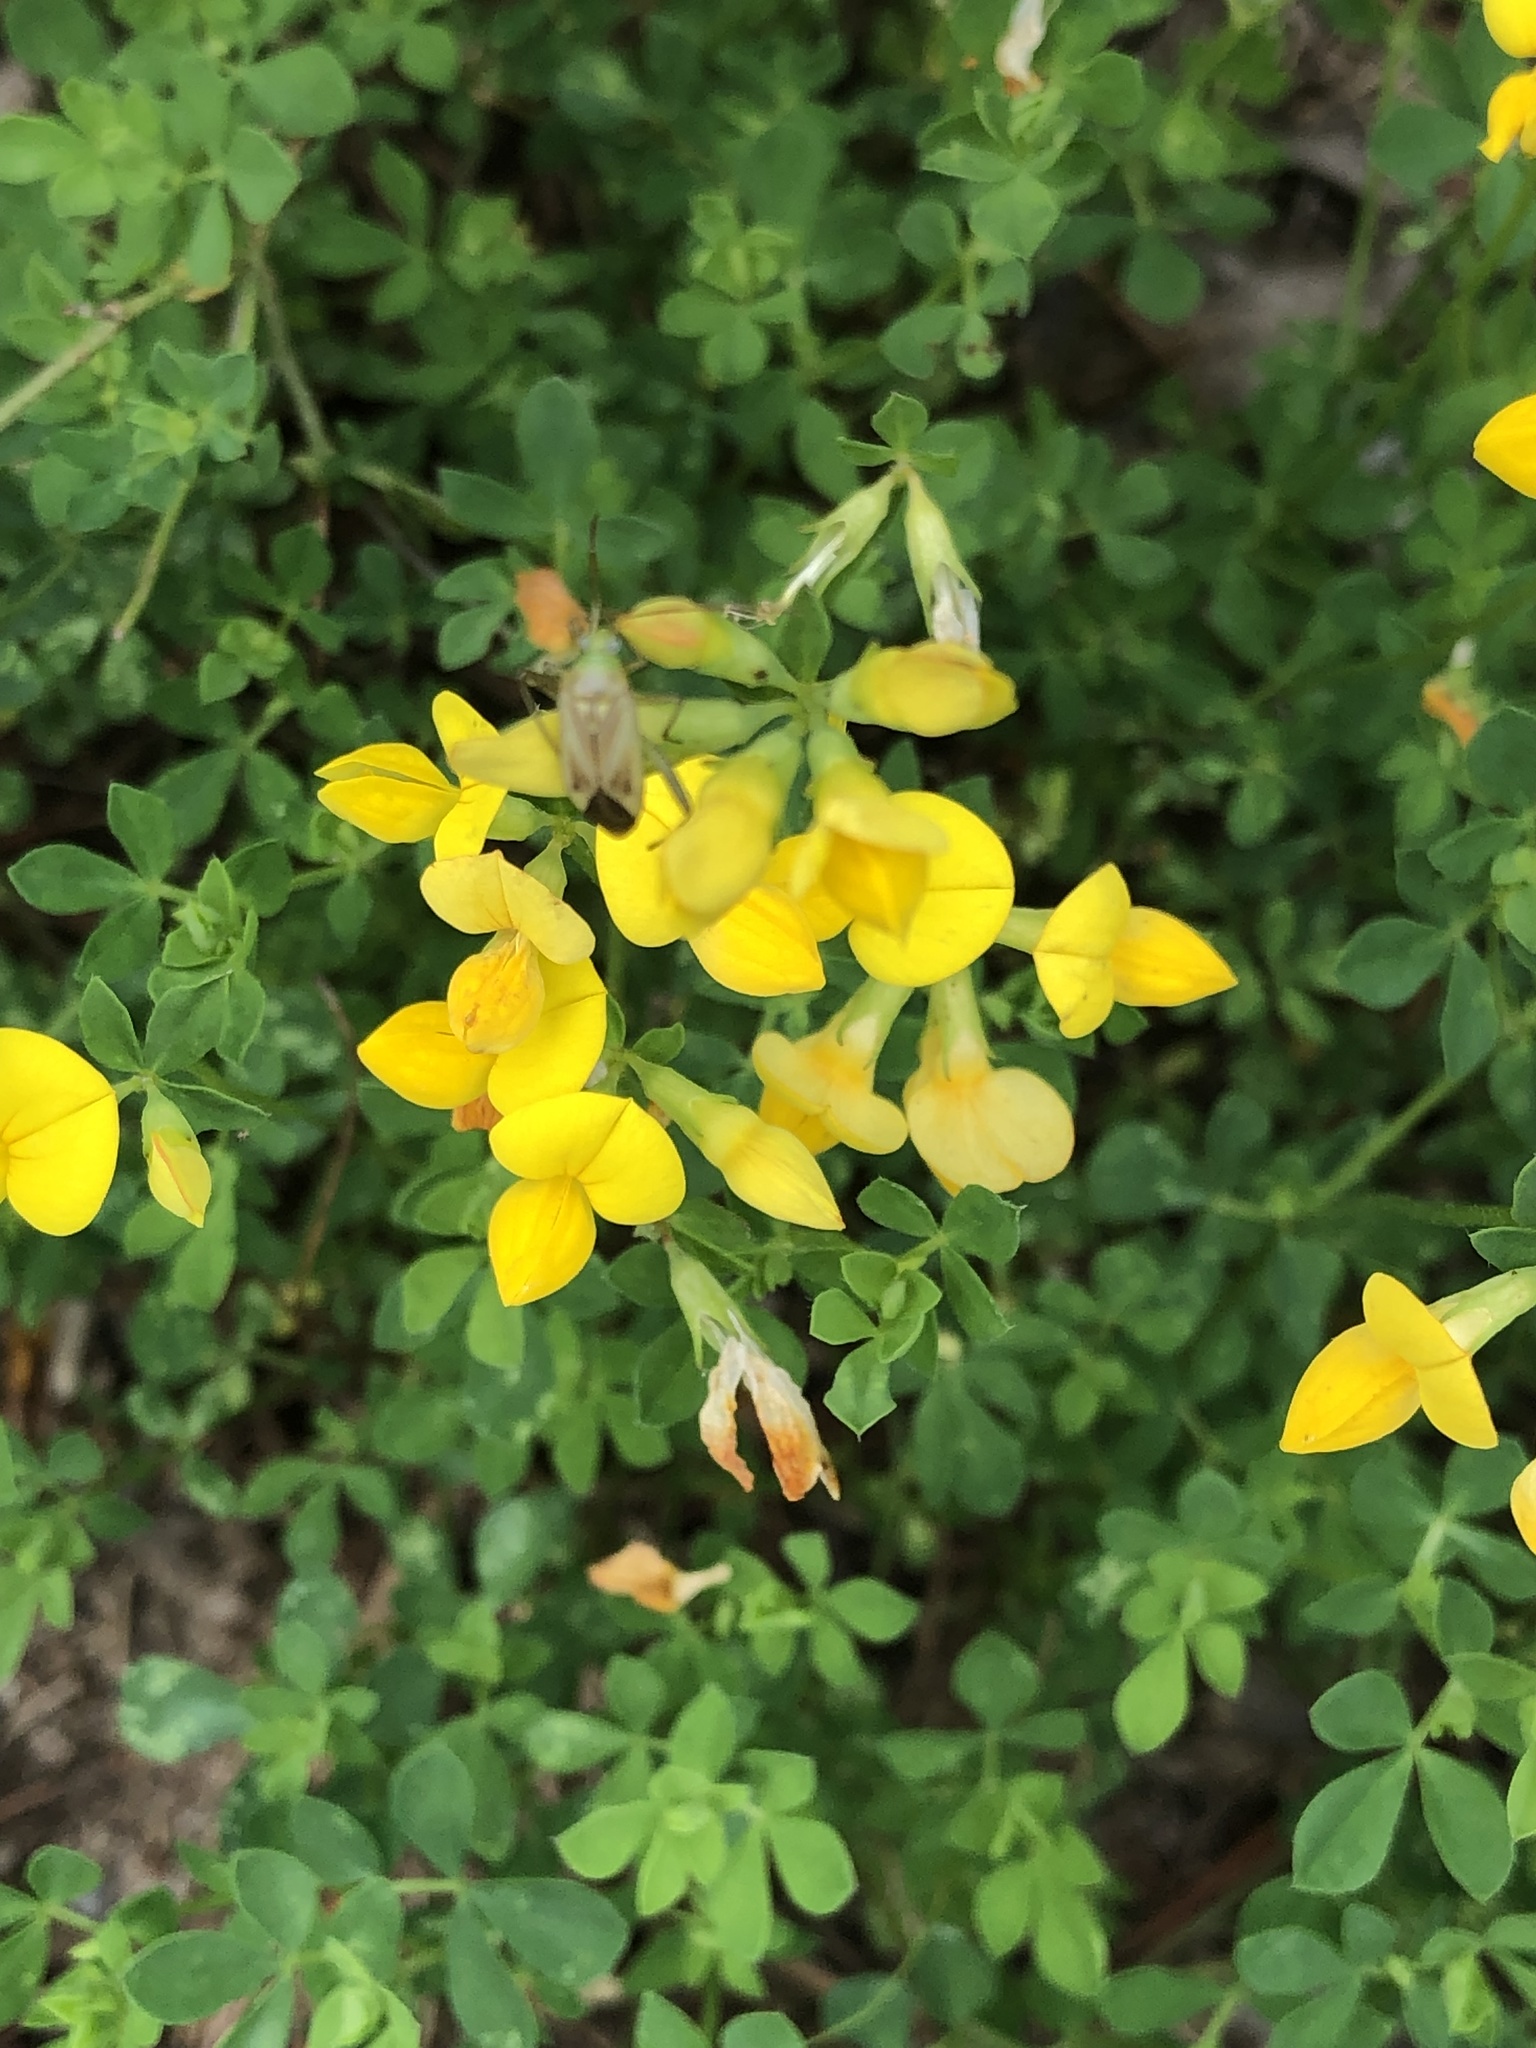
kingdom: Plantae
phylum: Tracheophyta
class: Magnoliopsida
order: Fabales
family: Fabaceae
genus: Lotus
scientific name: Lotus corniculatus
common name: Common bird's-foot-trefoil
